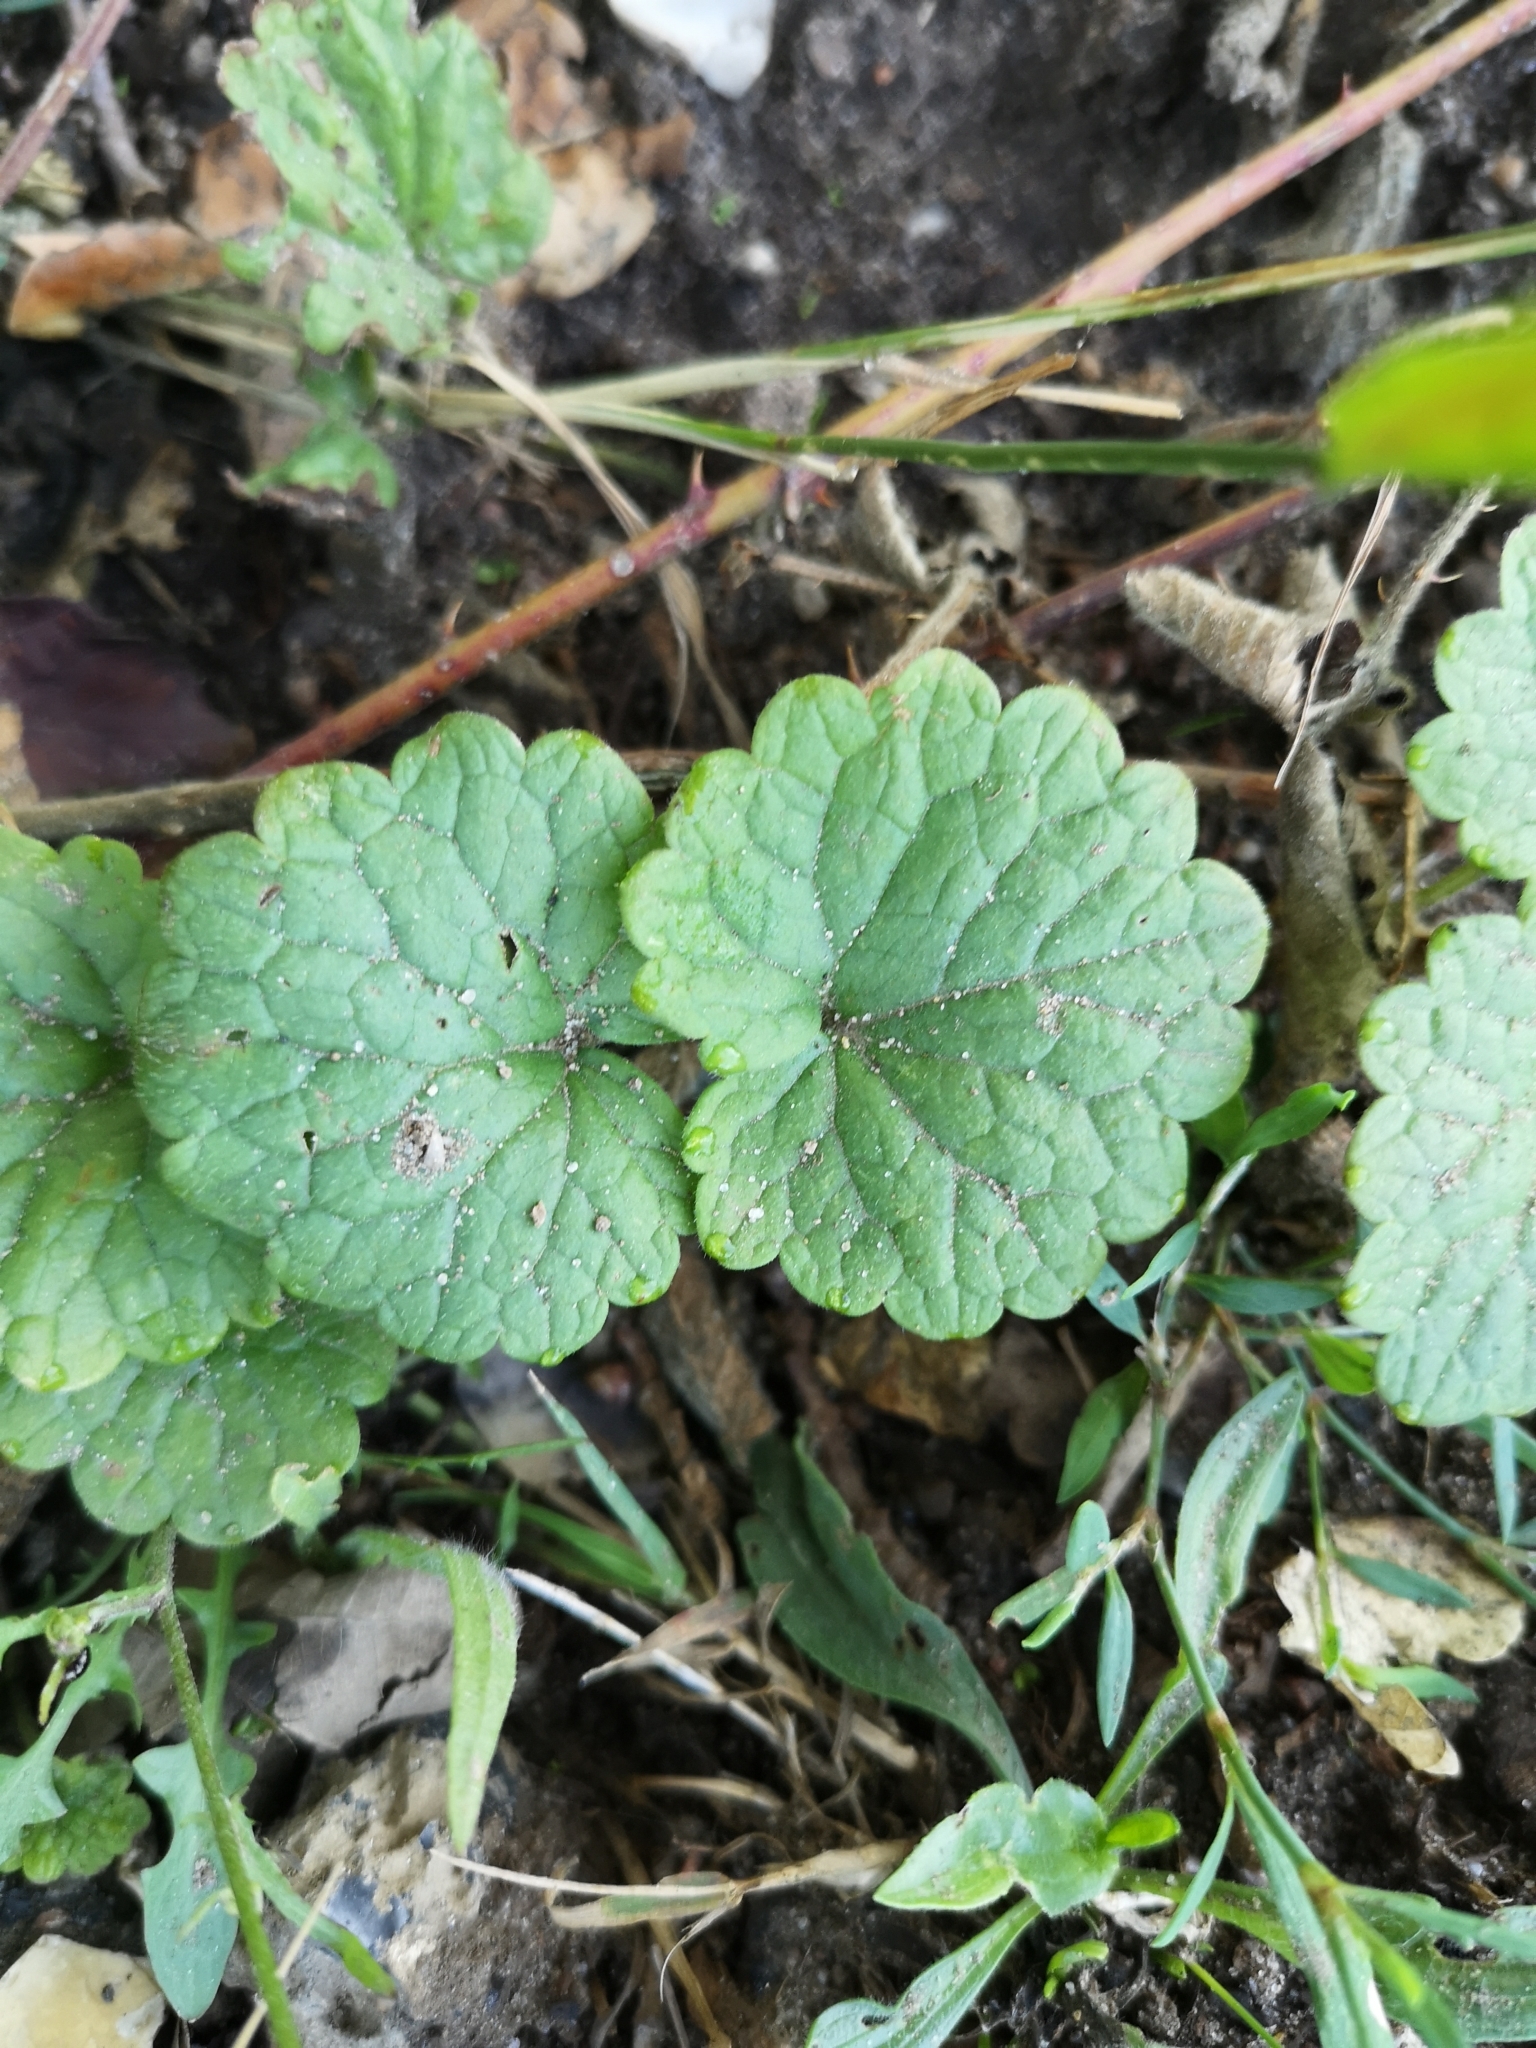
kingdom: Plantae
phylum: Tracheophyta
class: Magnoliopsida
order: Lamiales
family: Lamiaceae
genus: Glechoma
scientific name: Glechoma hederacea
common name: Ground ivy
